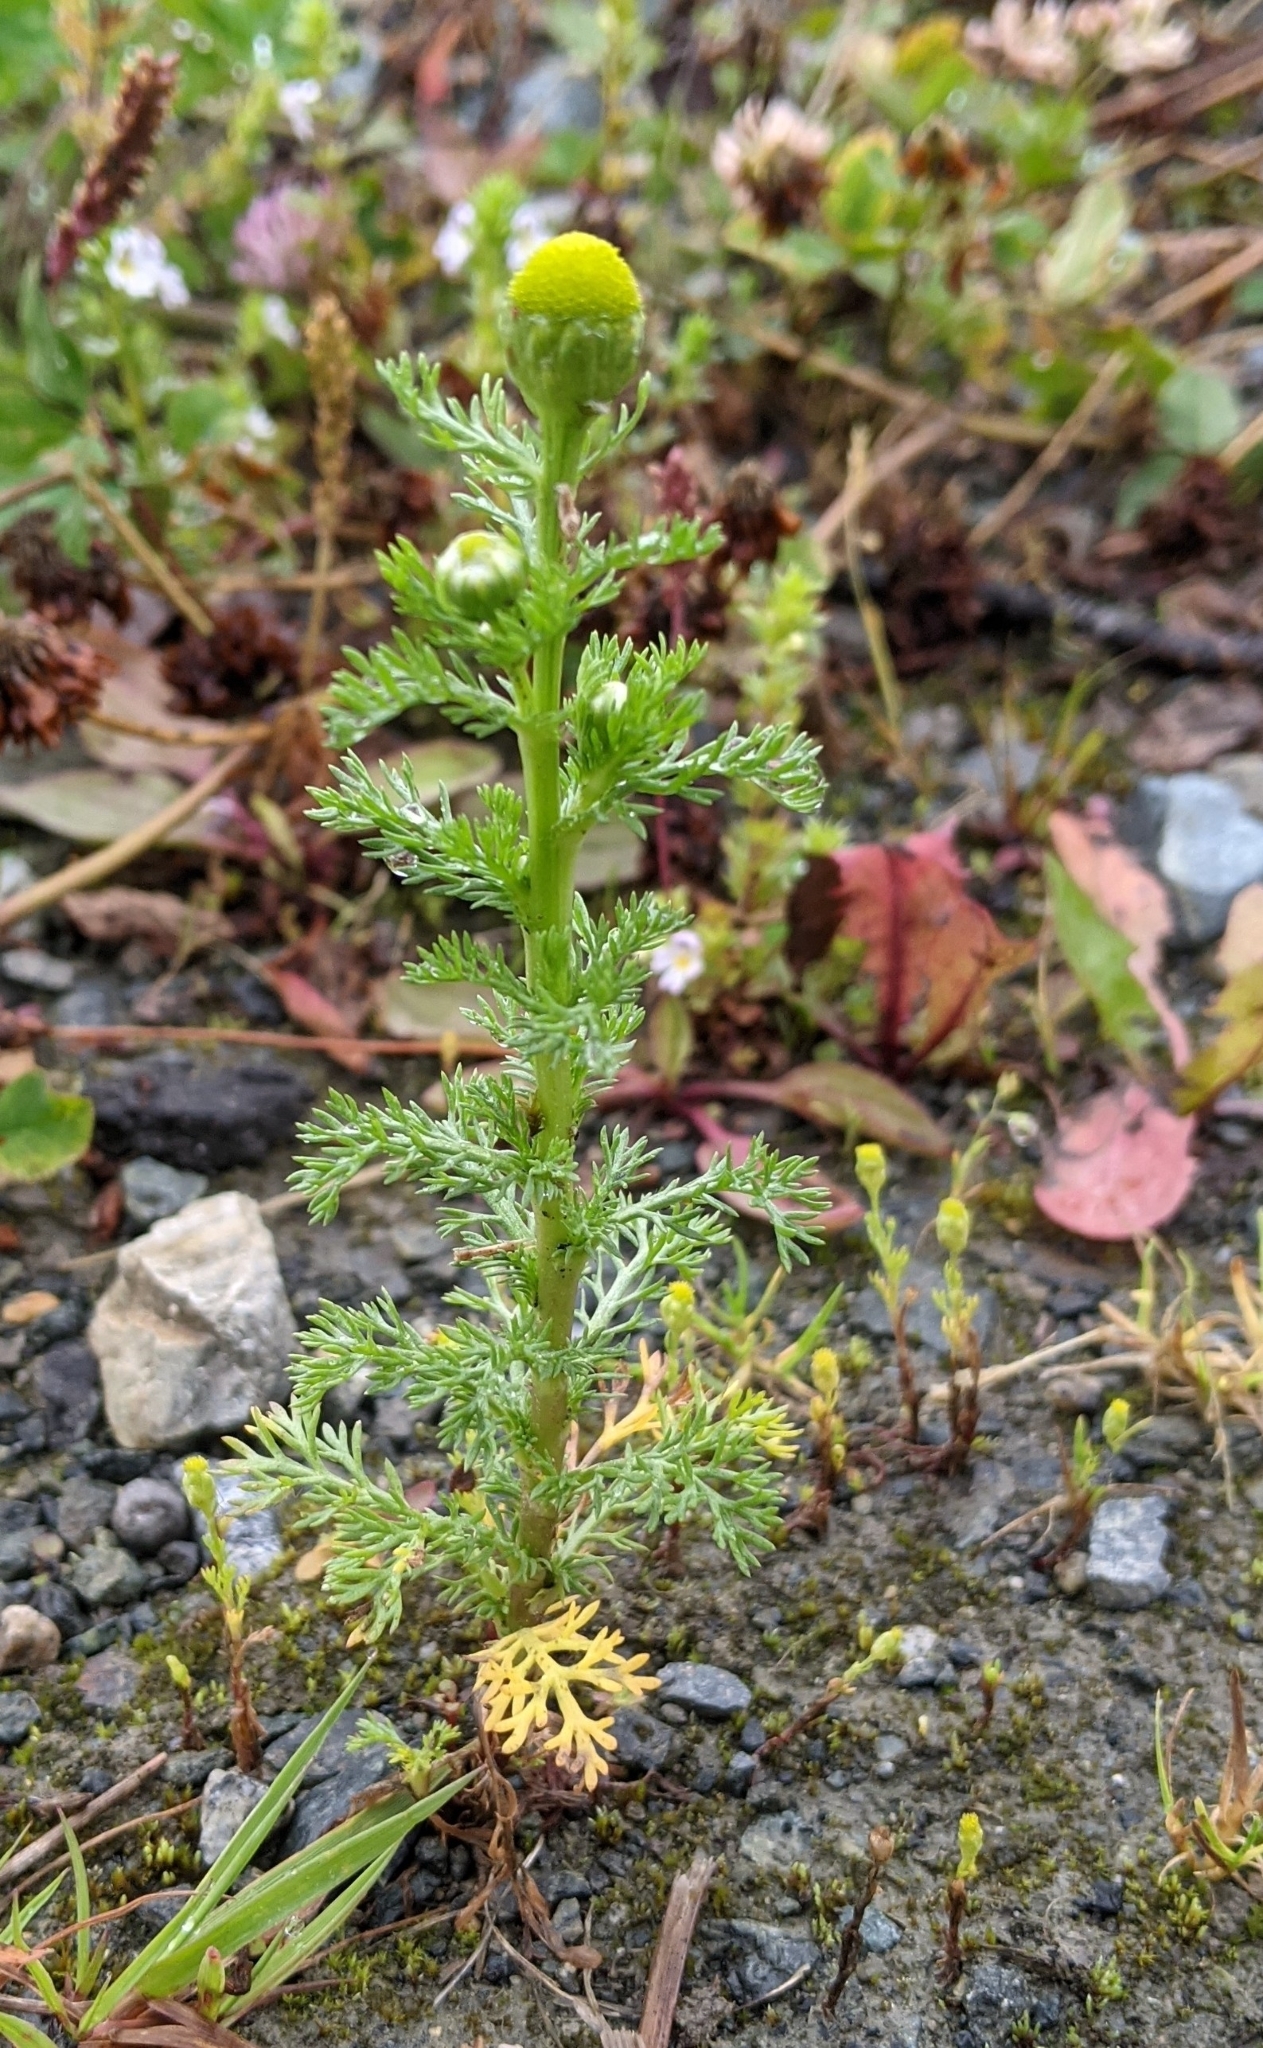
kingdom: Plantae
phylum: Tracheophyta
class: Magnoliopsida
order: Asterales
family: Asteraceae
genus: Matricaria
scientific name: Matricaria discoidea
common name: Disc mayweed
